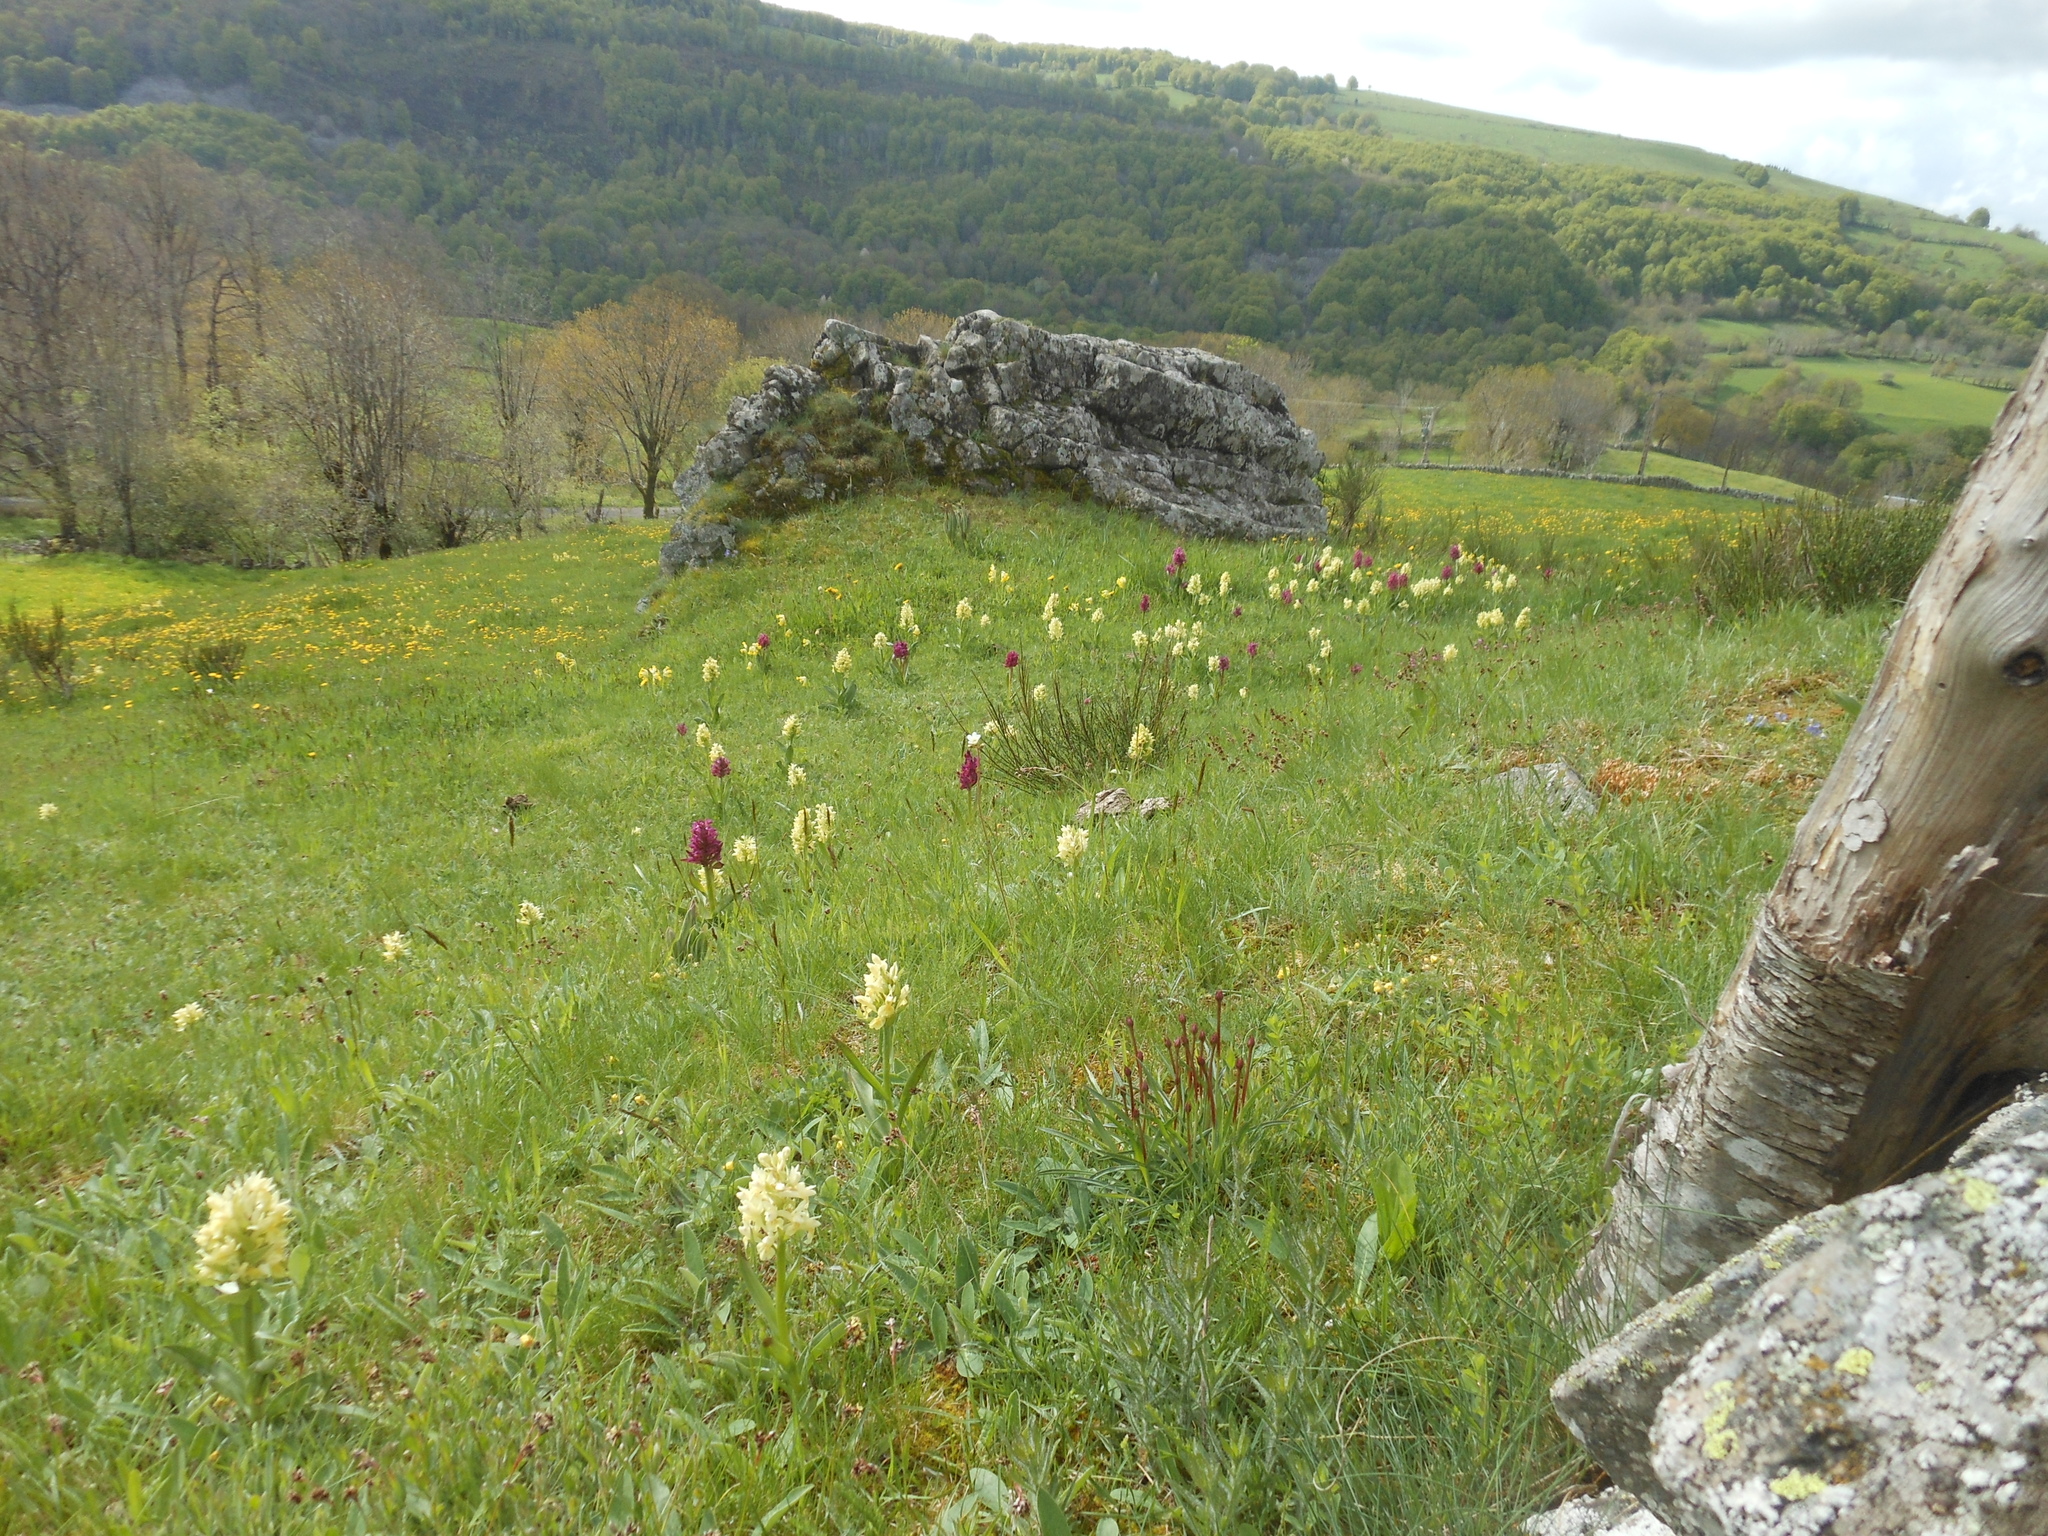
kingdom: Plantae
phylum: Tracheophyta
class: Liliopsida
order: Asparagales
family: Orchidaceae
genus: Dactylorhiza
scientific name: Dactylorhiza sambucina
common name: Elder-flowered orchid
